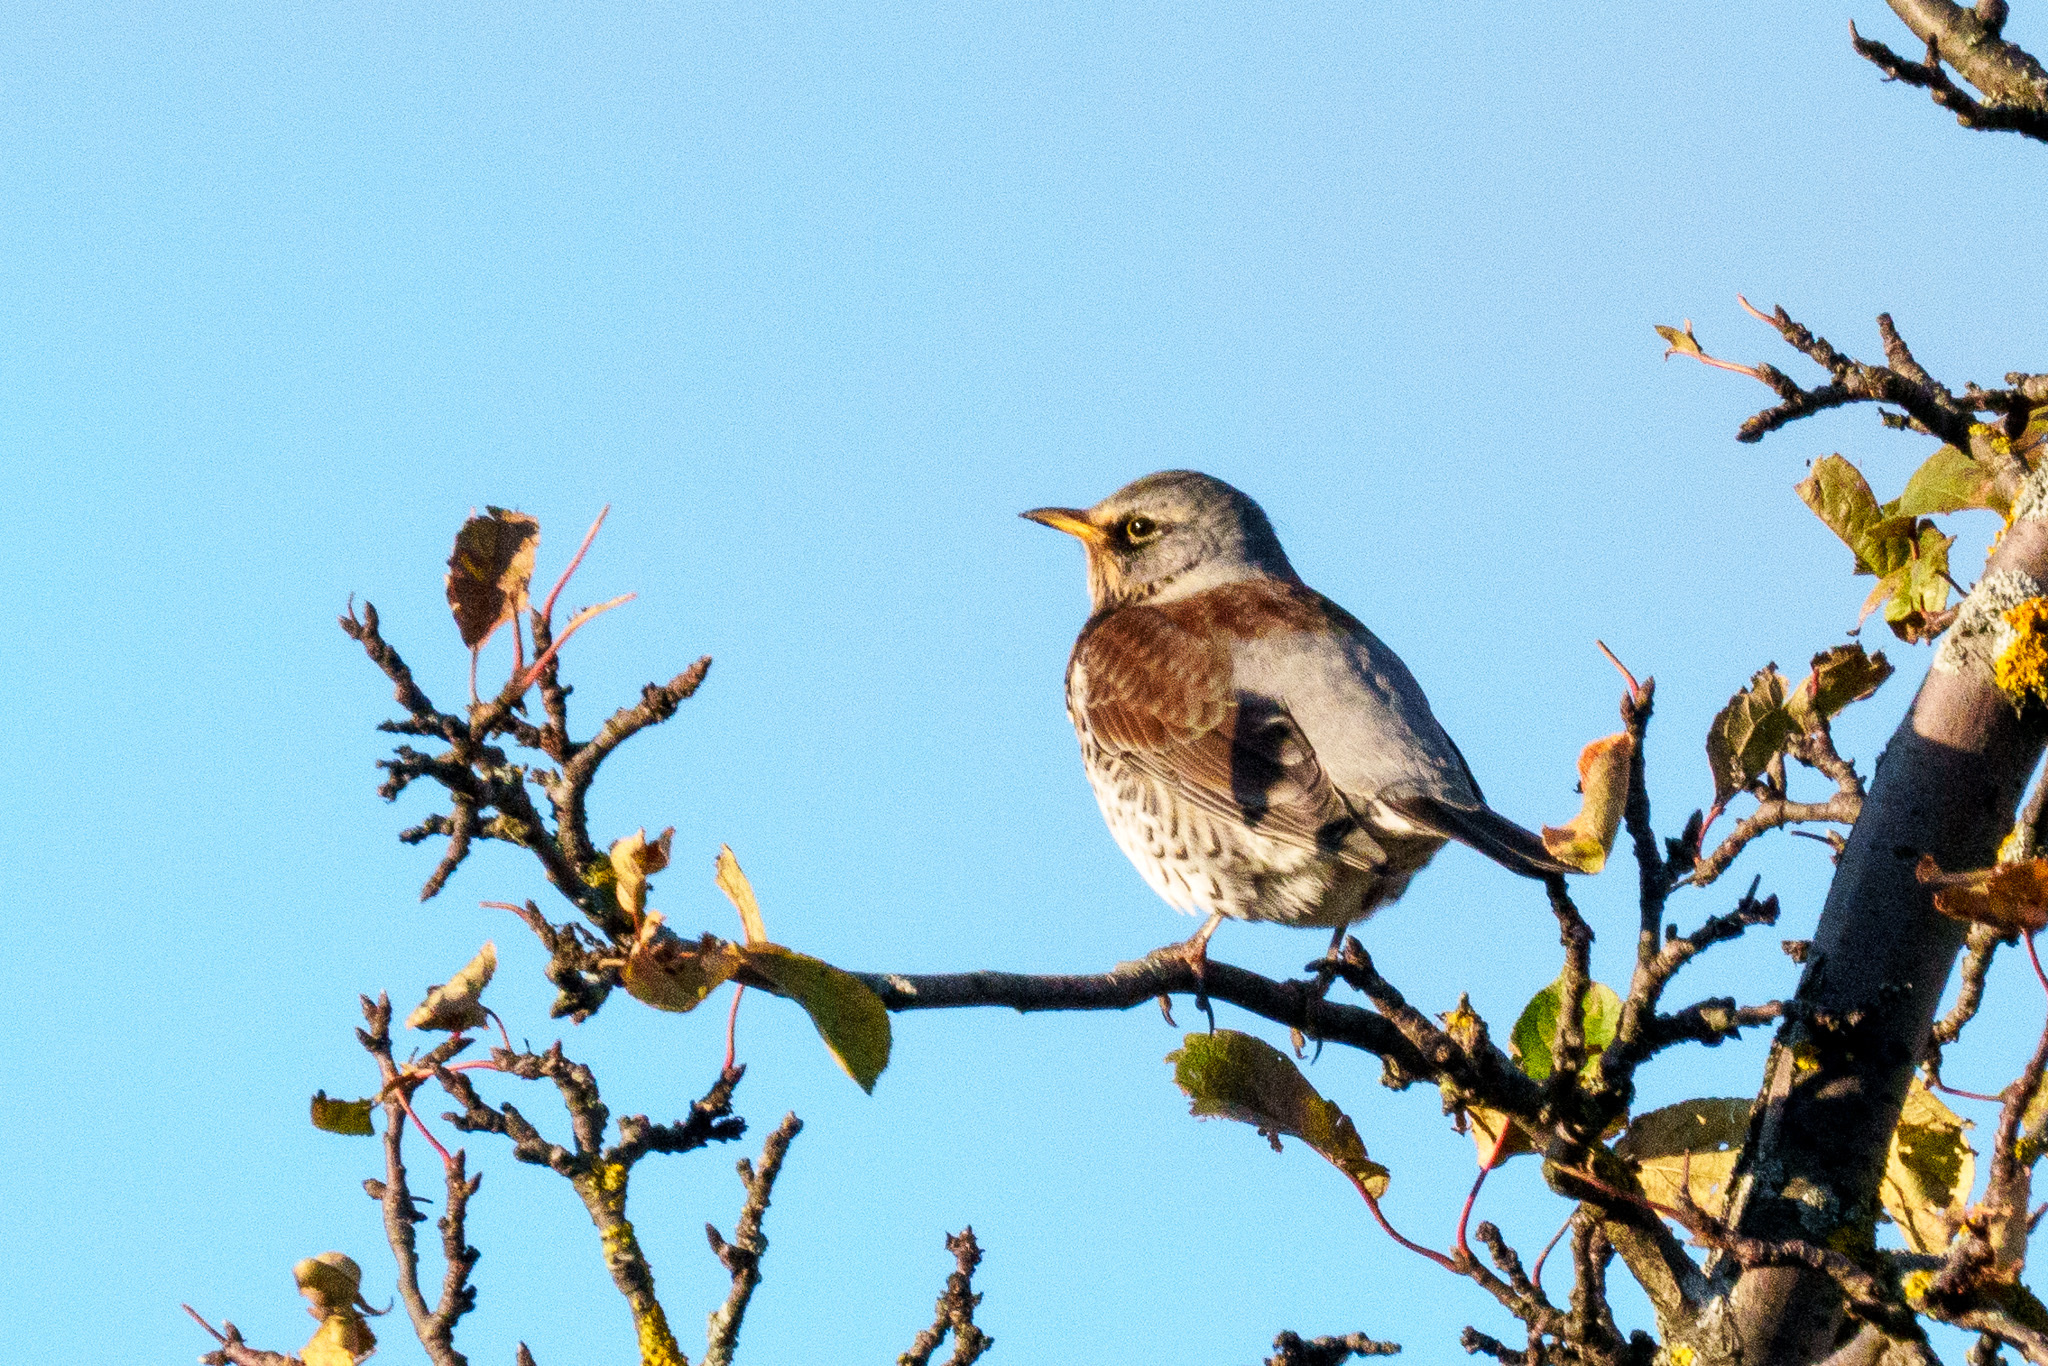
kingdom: Animalia
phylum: Chordata
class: Aves
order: Passeriformes
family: Turdidae
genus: Turdus
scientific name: Turdus pilaris
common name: Fieldfare
